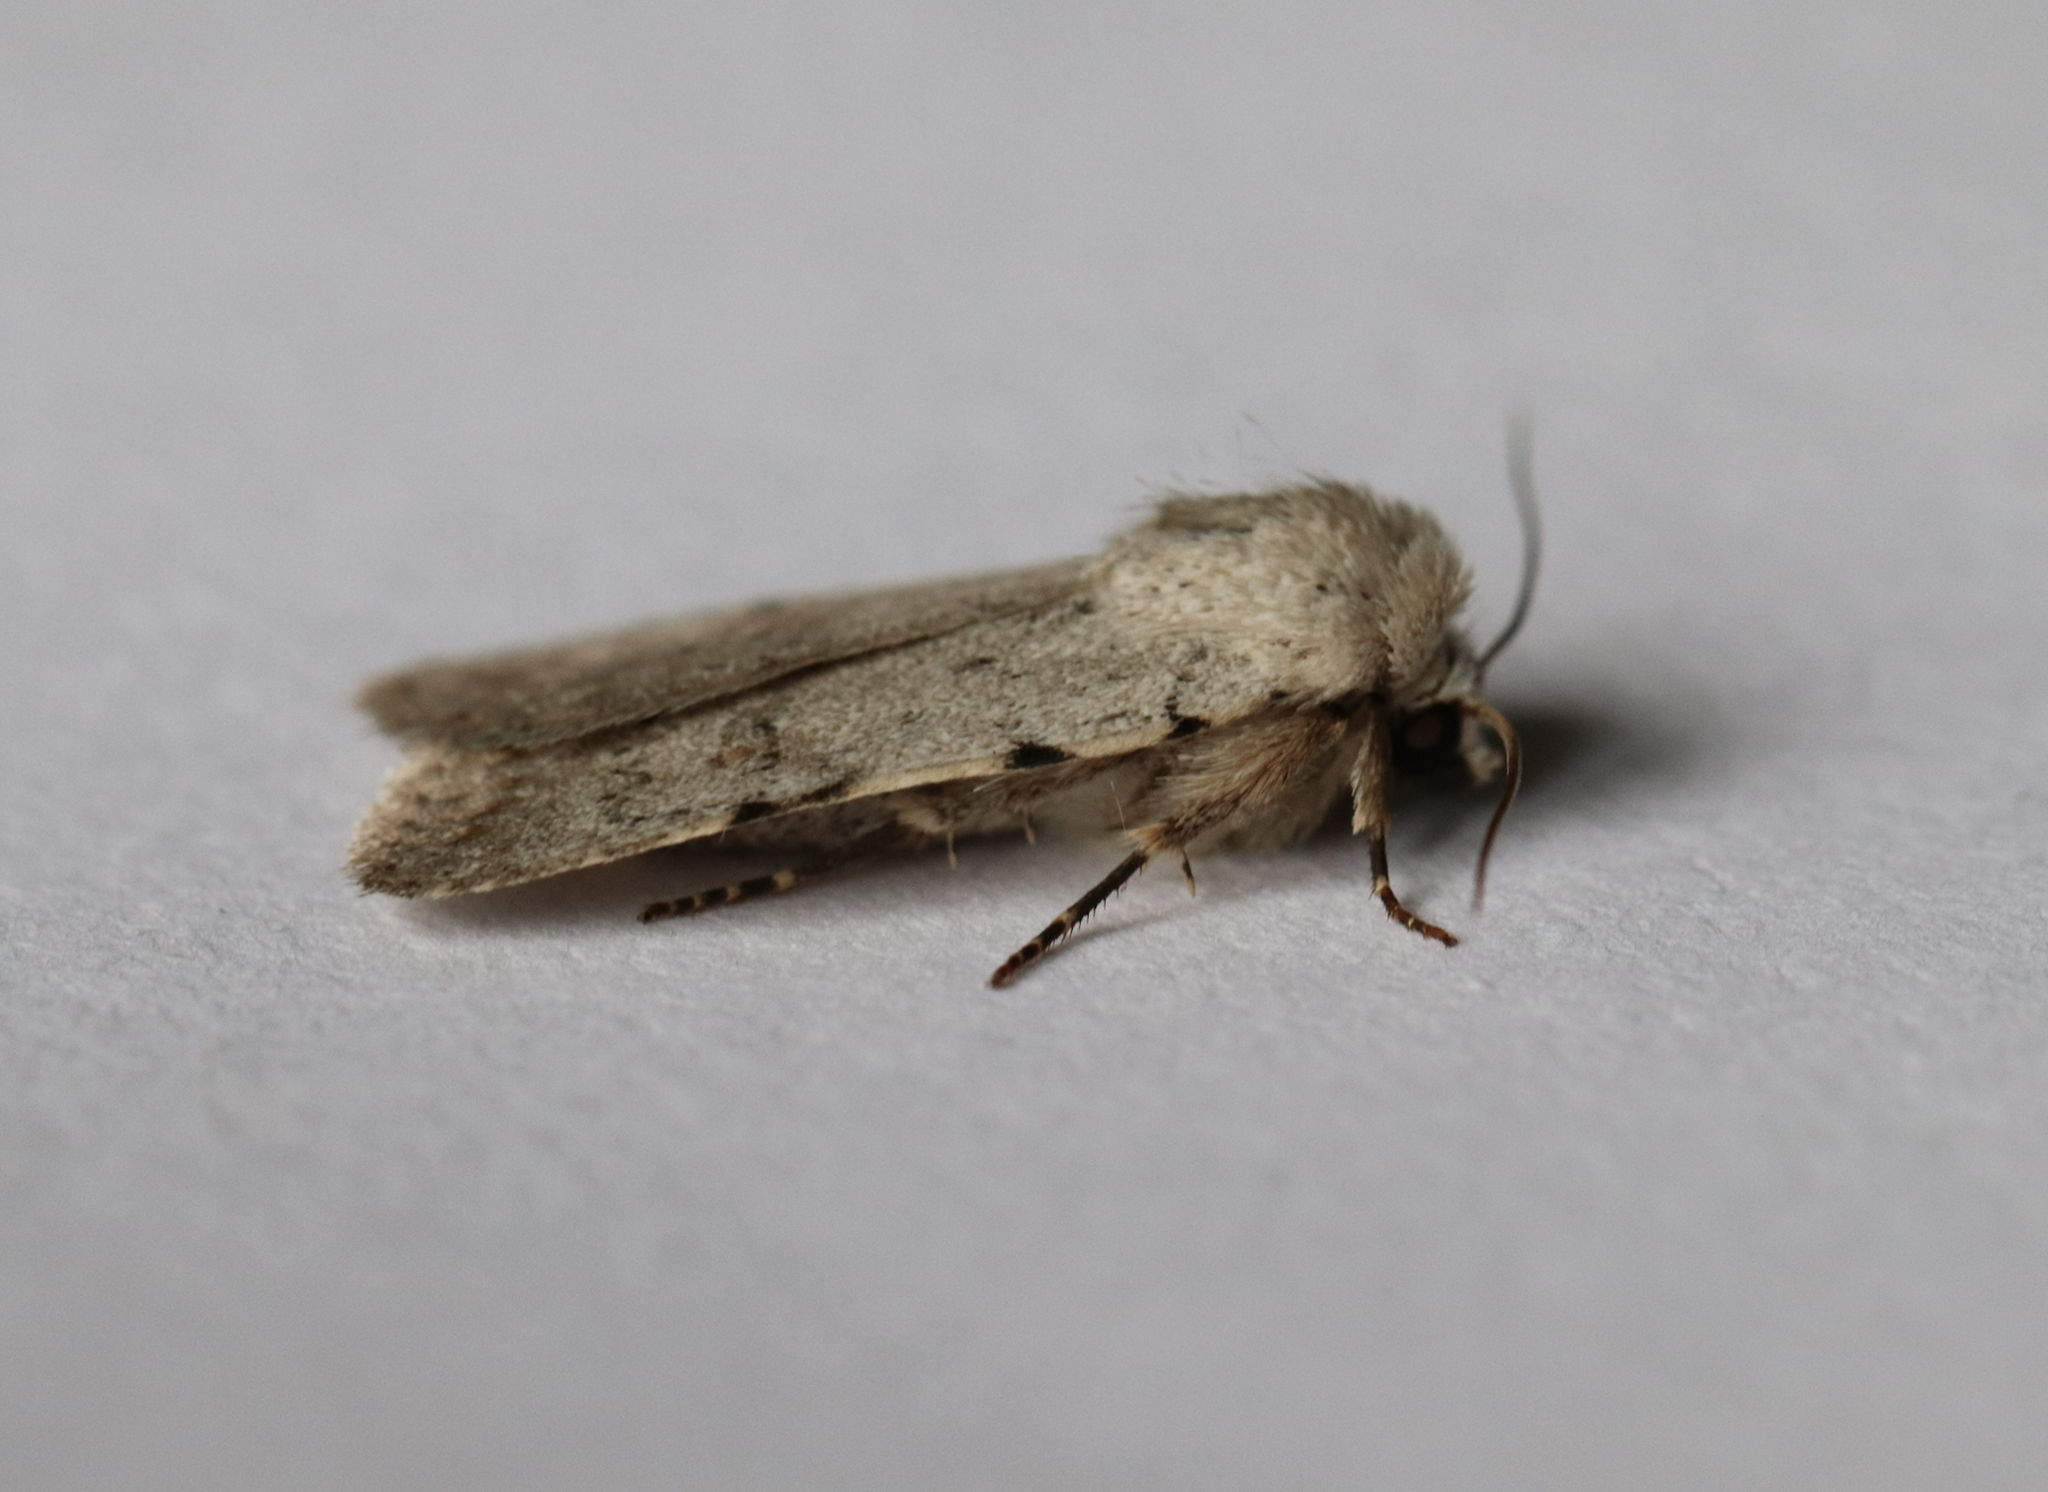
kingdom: Animalia
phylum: Arthropoda
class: Insecta
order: Lepidoptera
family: Noctuidae
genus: Caradrina
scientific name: Caradrina clavipalpis
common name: Pale mottled willow
